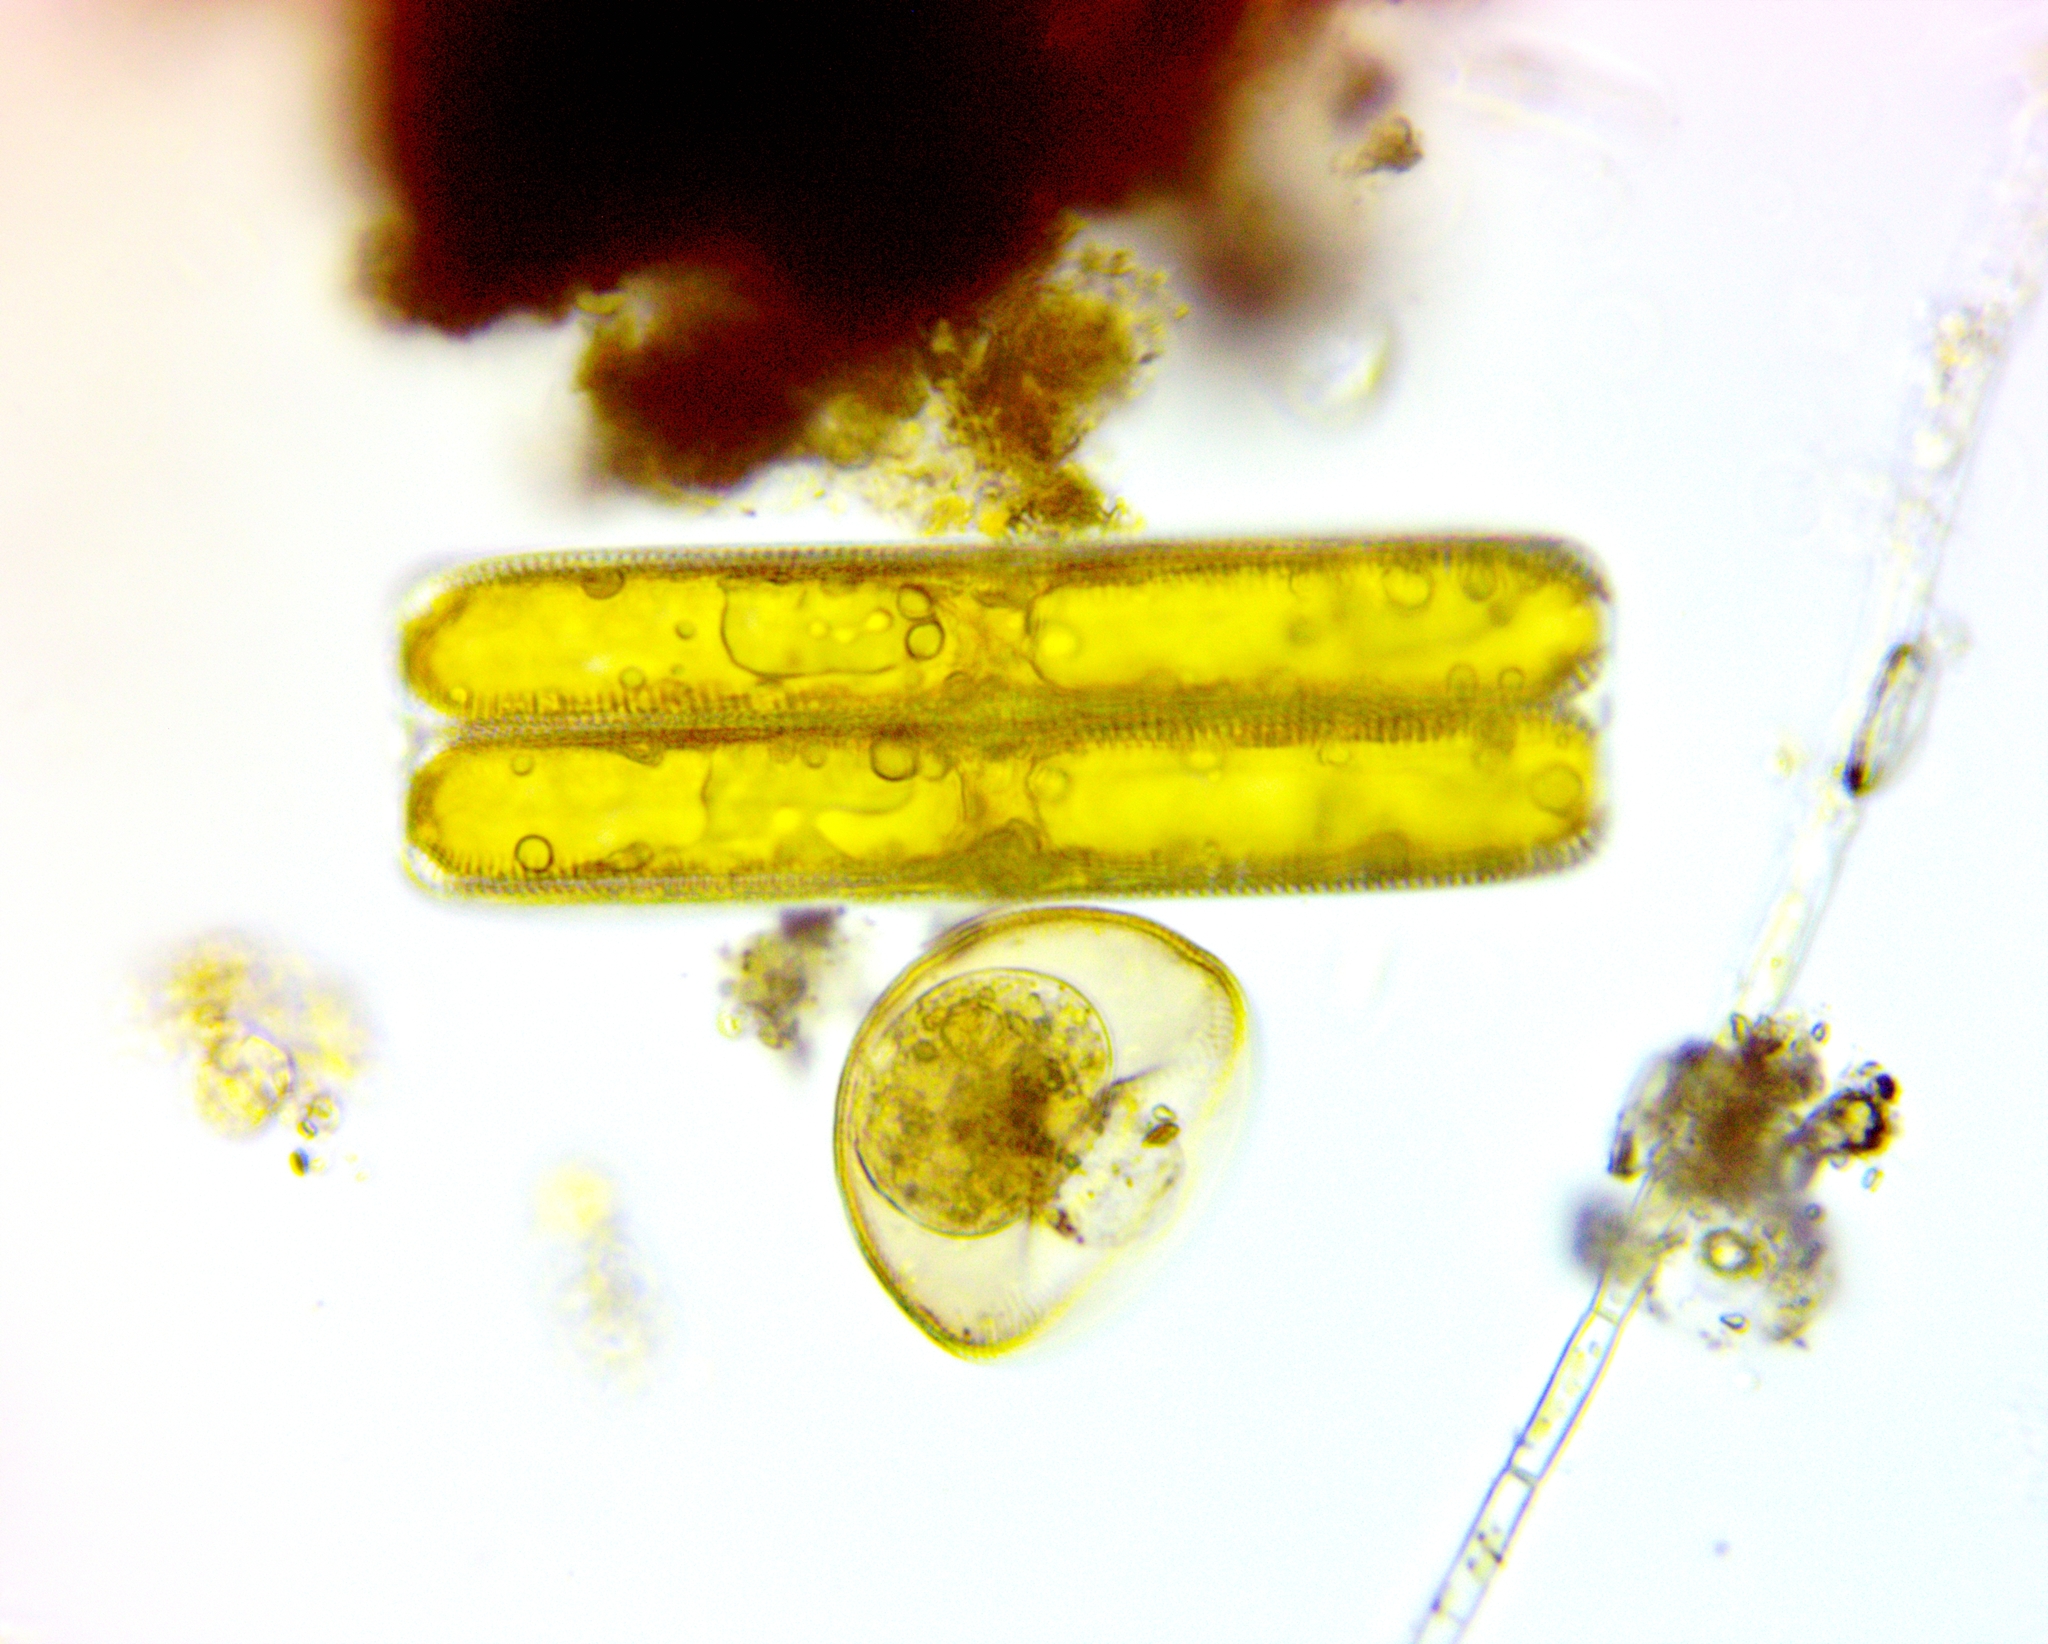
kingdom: Chromista
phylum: Ochrophyta
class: Bacillariophyceae
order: Naviculales
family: Pinnulariaceae
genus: Pinnularia
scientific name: Pinnularia
